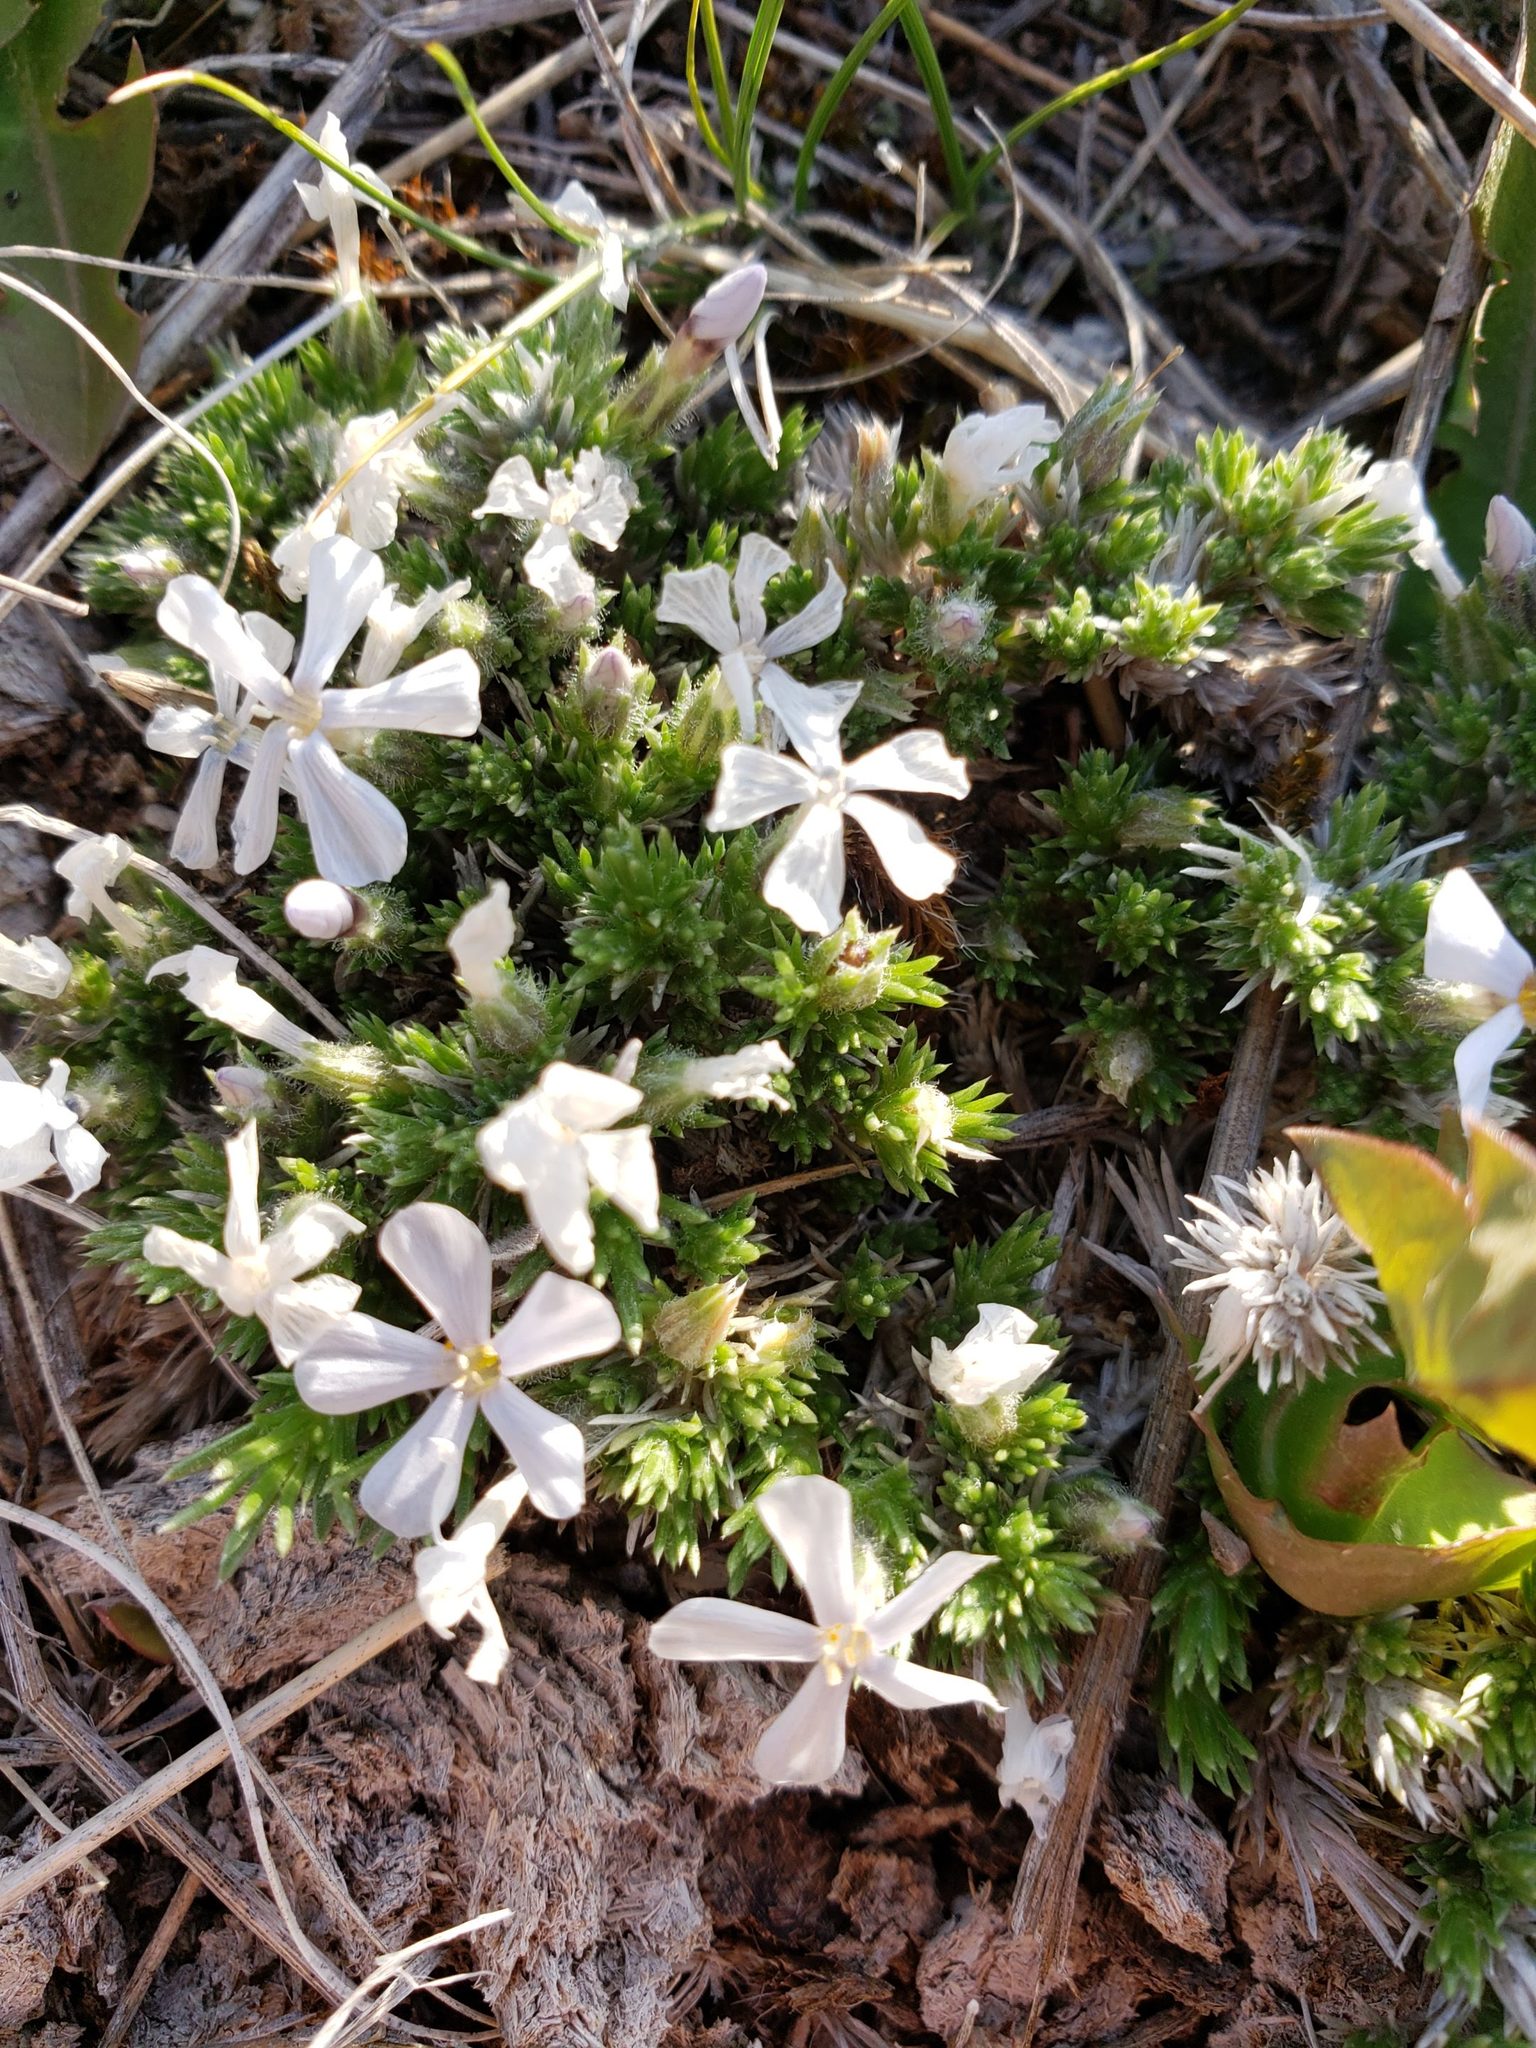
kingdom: Plantae
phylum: Tracheophyta
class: Magnoliopsida
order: Ericales
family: Polemoniaceae
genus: Phlox
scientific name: Phlox hoodii
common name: Moss phlox
